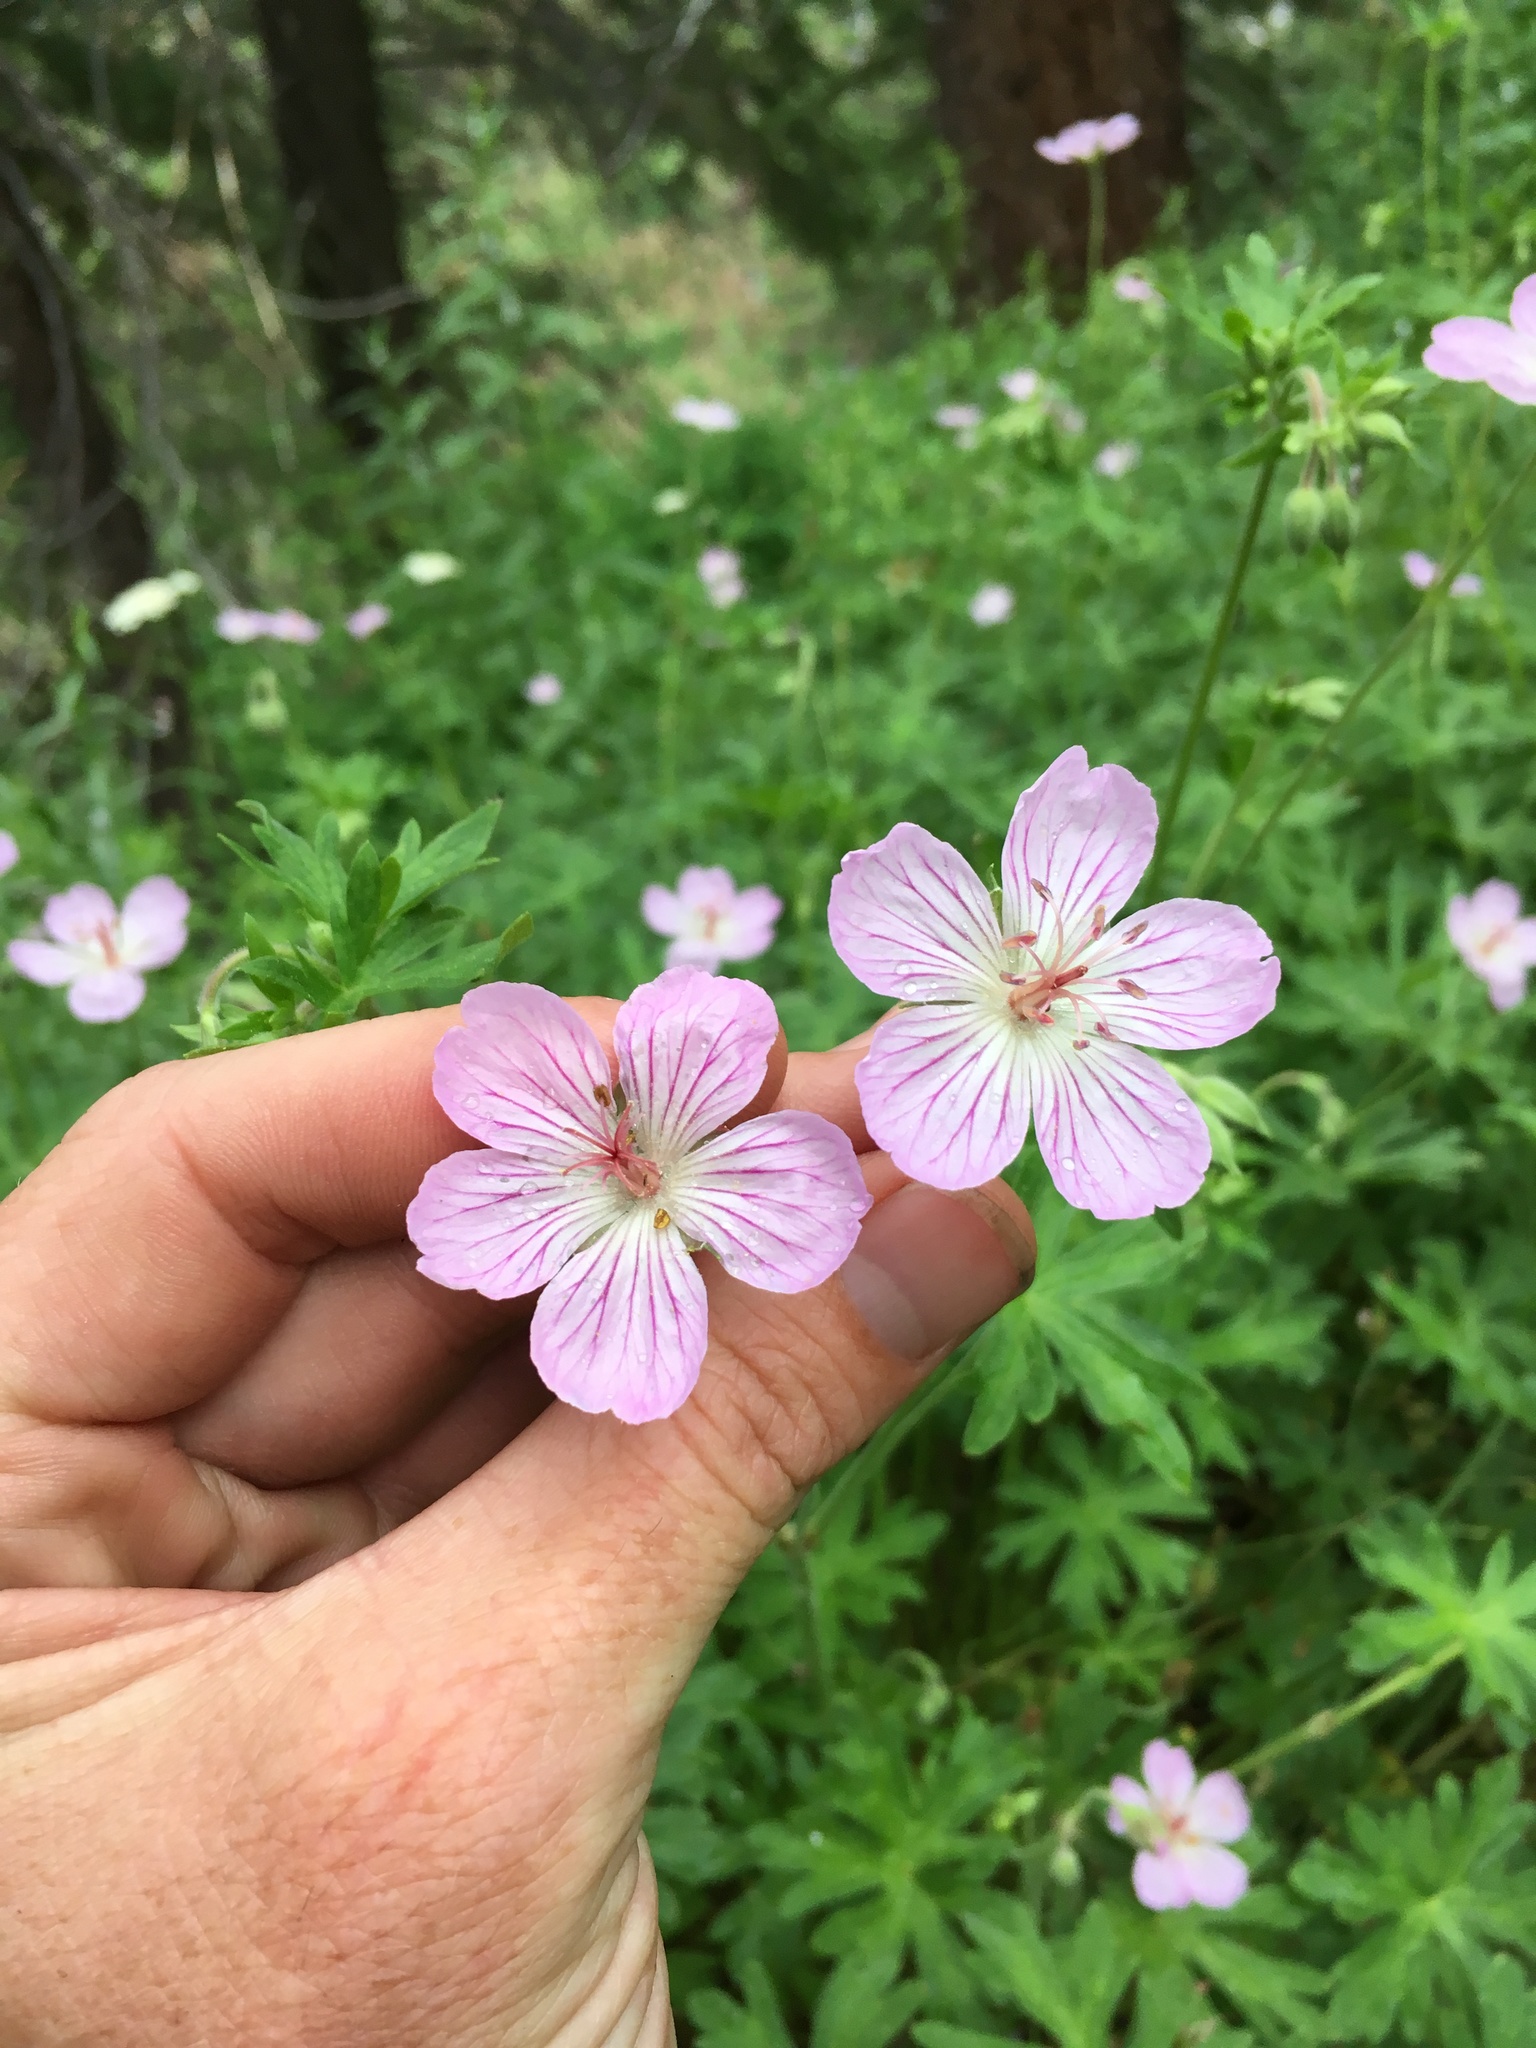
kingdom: Plantae
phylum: Tracheophyta
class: Magnoliopsida
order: Geraniales
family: Geraniaceae
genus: Geranium
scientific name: Geranium richardsonii
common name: Richardson's crane's-bill
